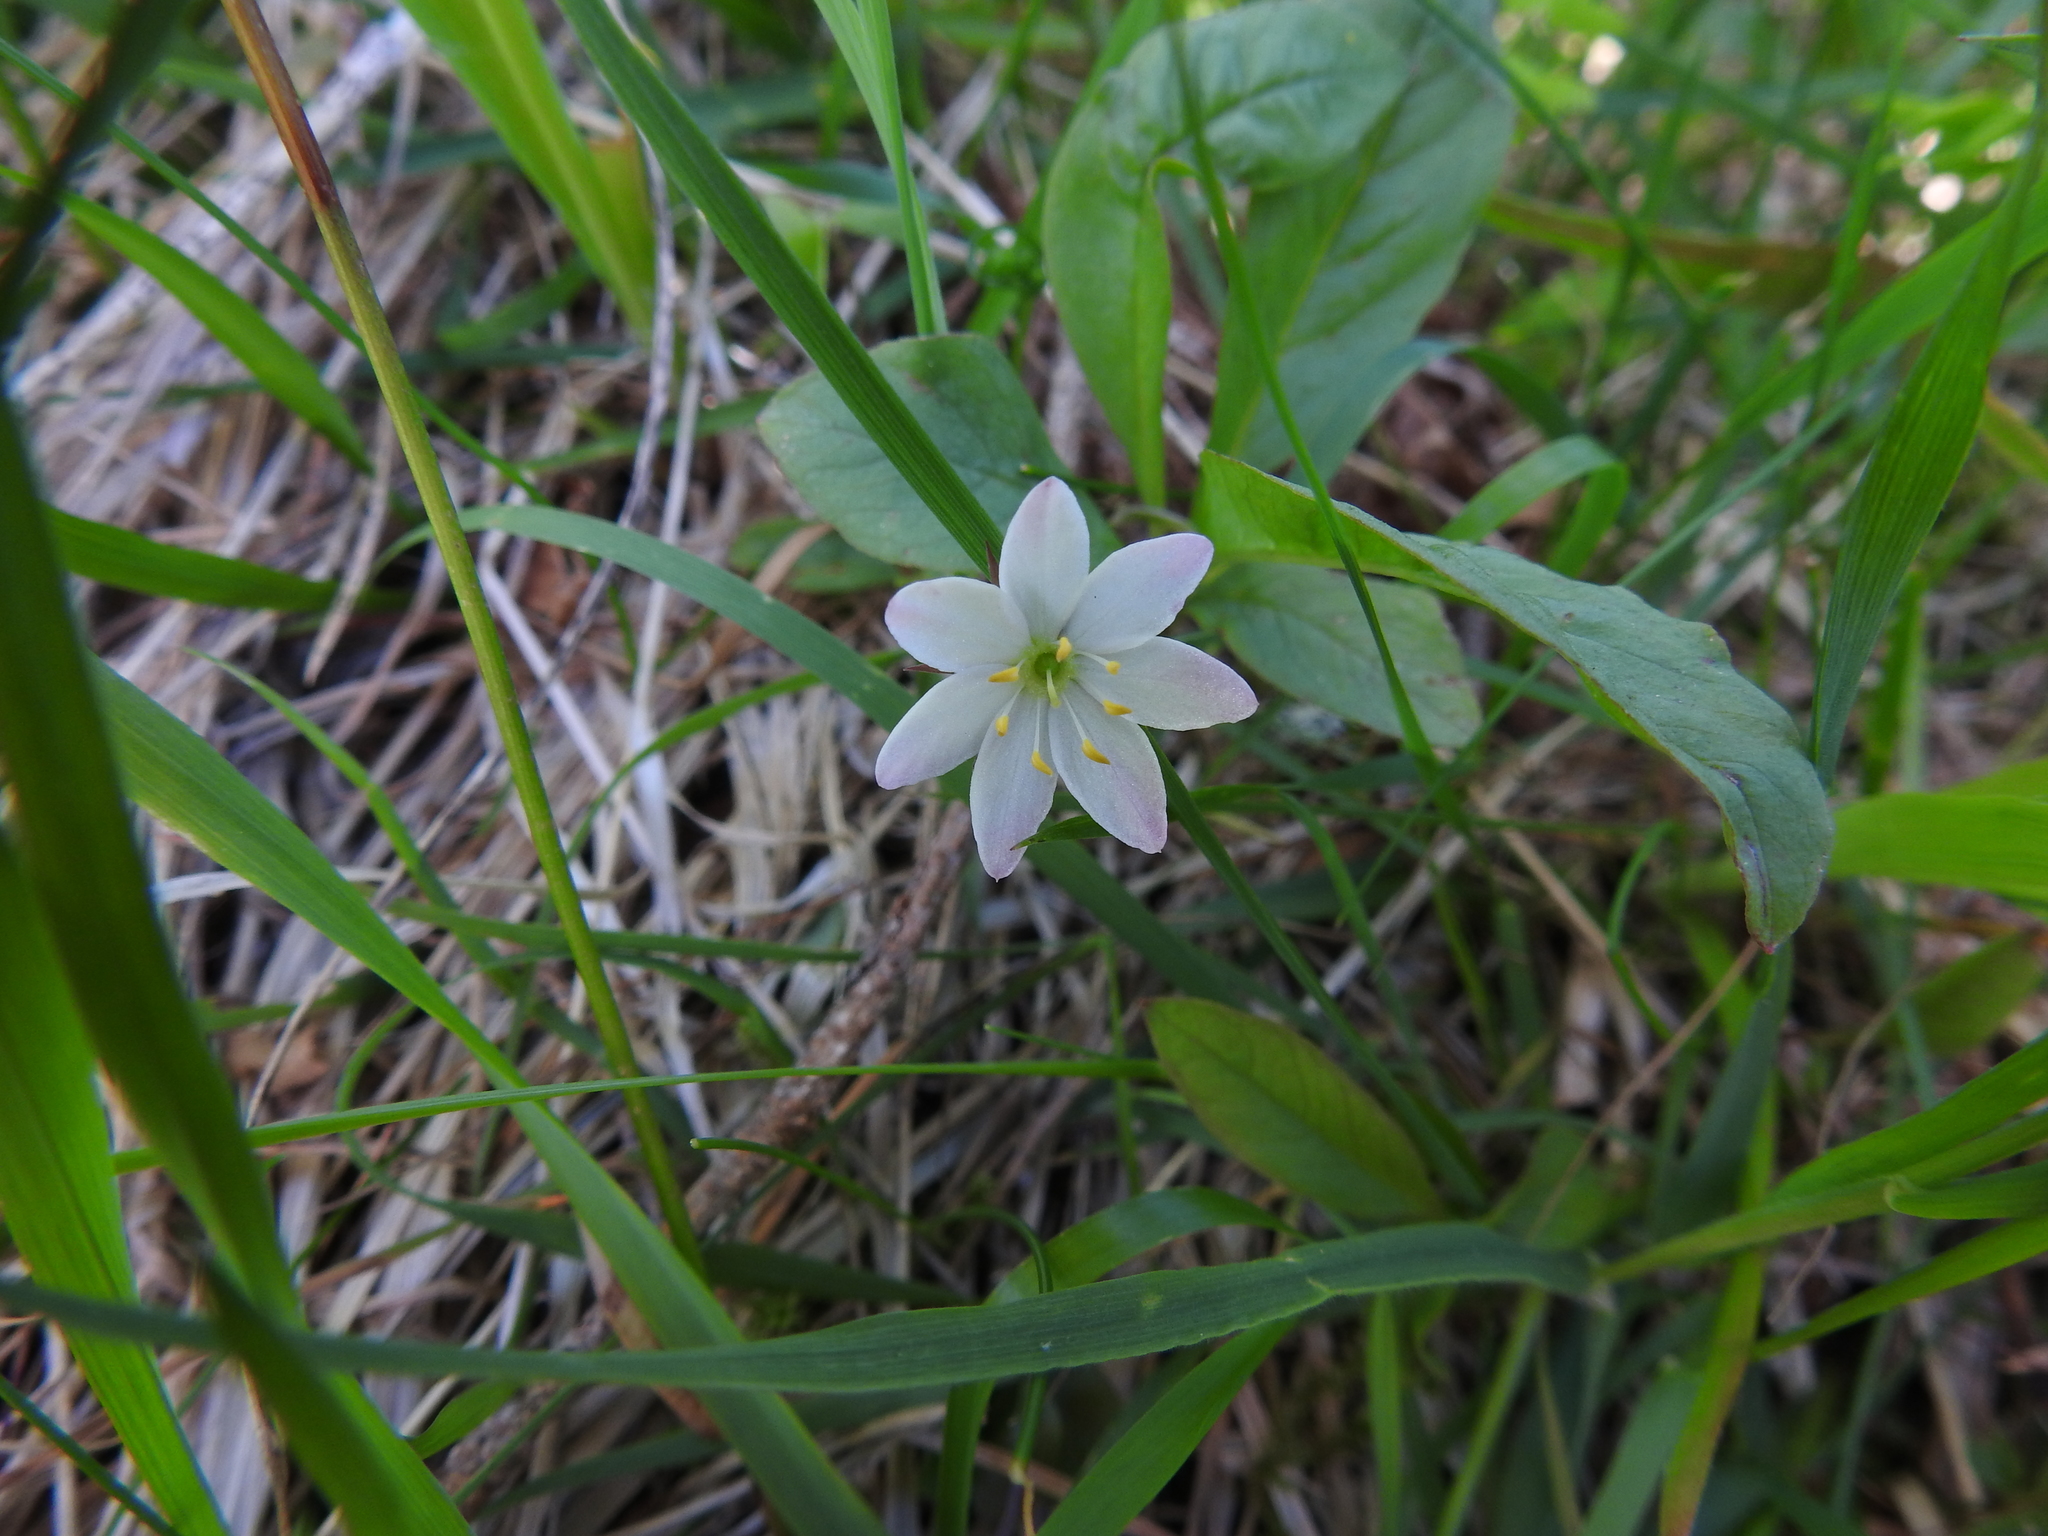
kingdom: Plantae
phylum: Tracheophyta
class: Magnoliopsida
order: Ericales
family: Primulaceae
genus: Lysimachia
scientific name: Lysimachia europaea
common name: Arctic starflower
